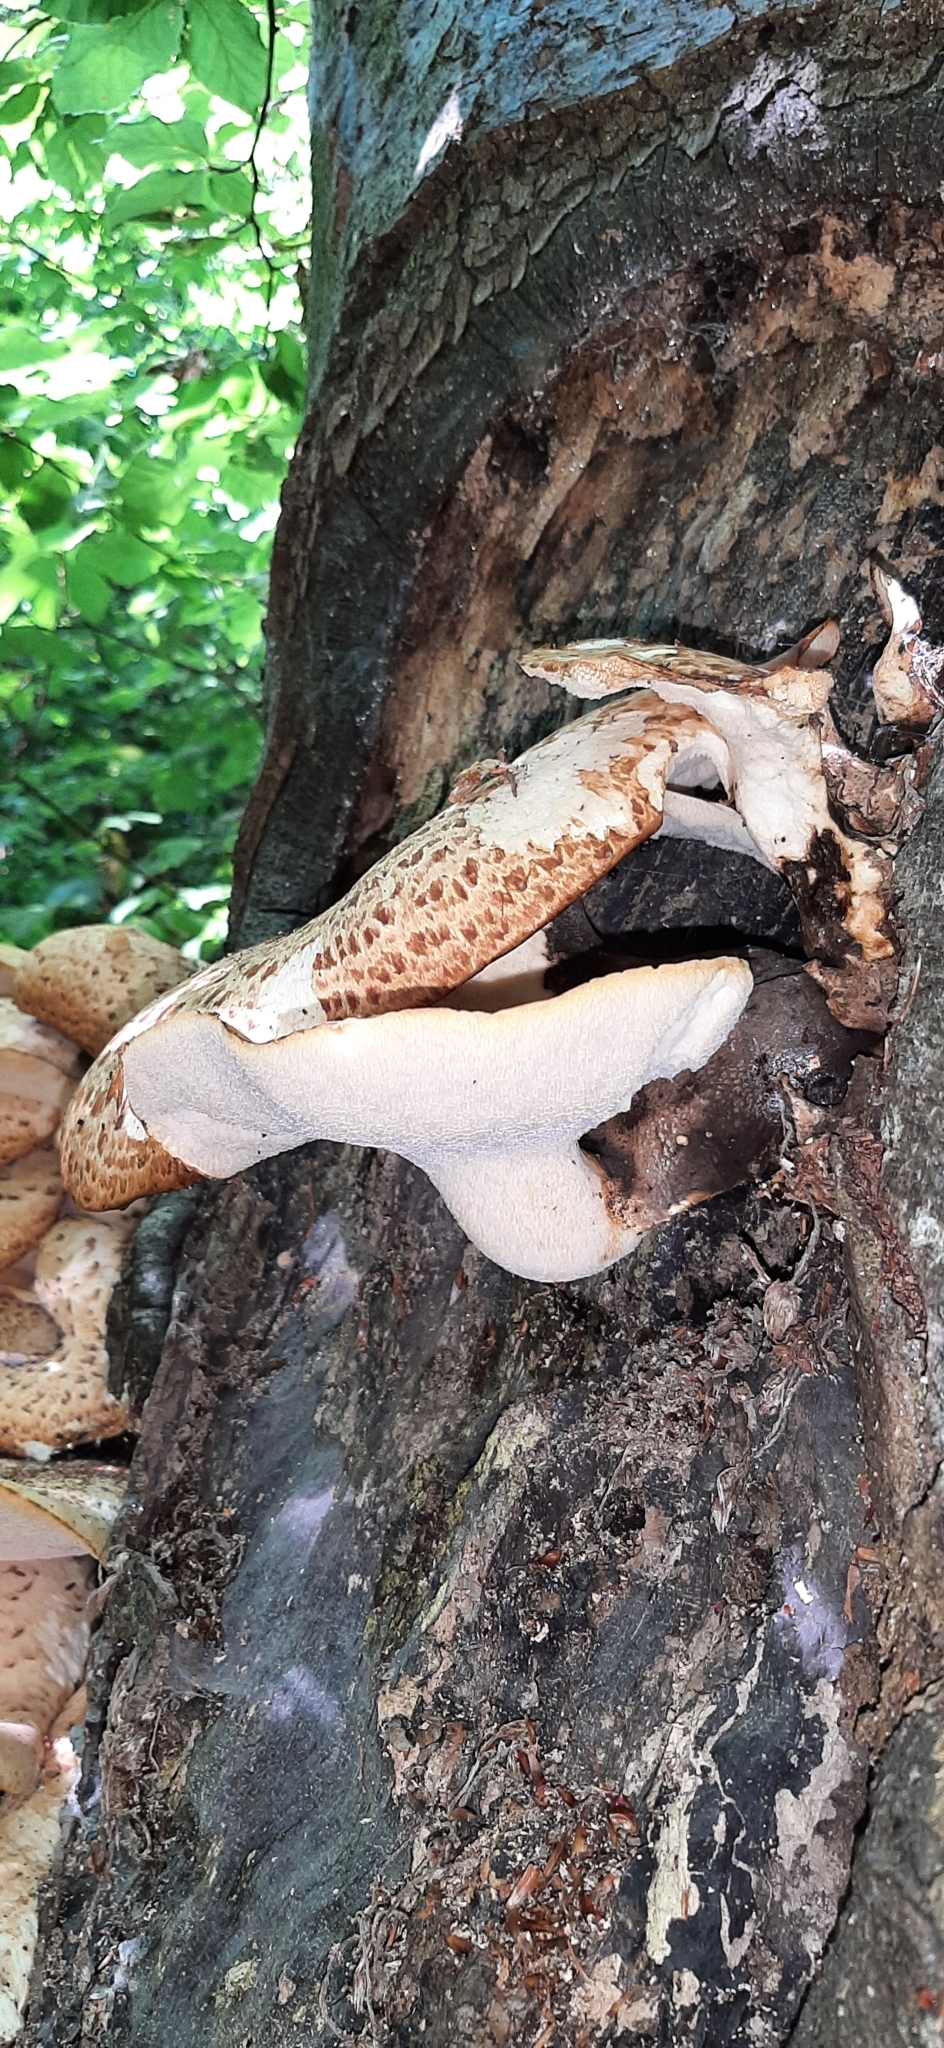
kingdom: Fungi
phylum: Basidiomycota
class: Agaricomycetes
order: Polyporales
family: Polyporaceae
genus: Cerioporus
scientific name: Cerioporus squamosus
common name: Dryad's saddle
